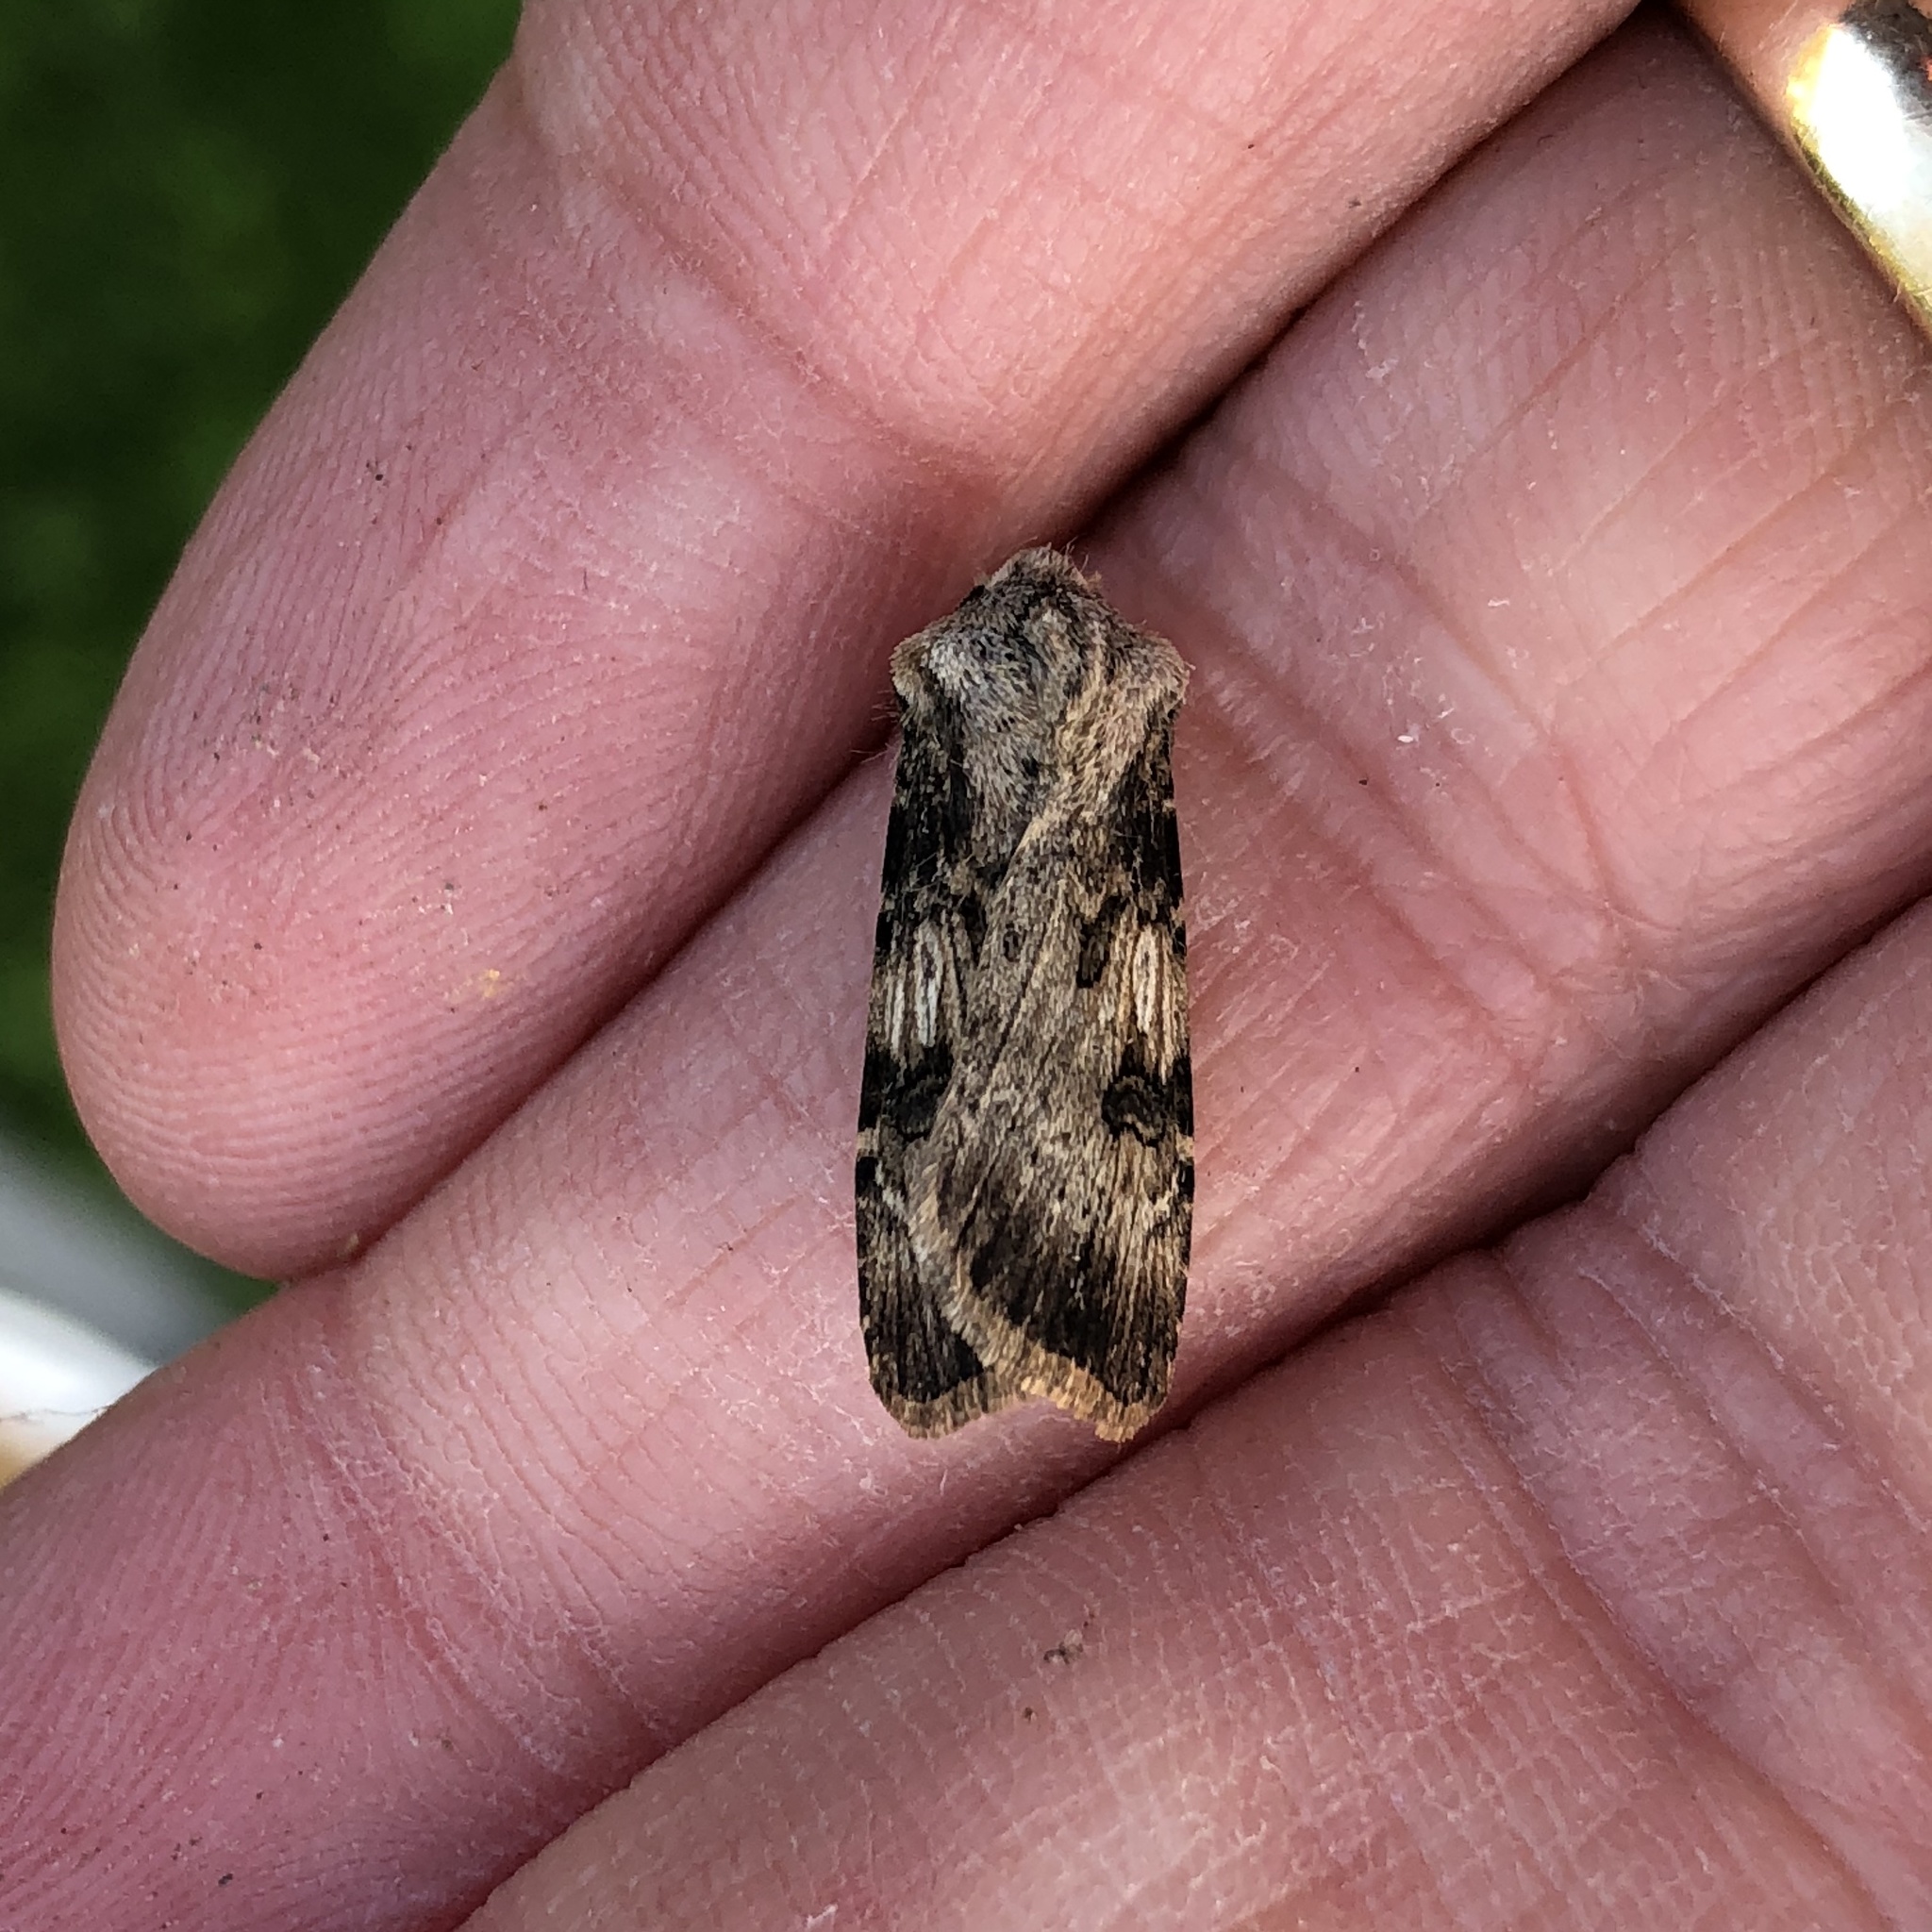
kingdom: Animalia
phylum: Arthropoda
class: Insecta
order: Lepidoptera
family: Noctuidae
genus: Agrotis
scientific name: Agrotis puta
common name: Shuttle-shaped dart
